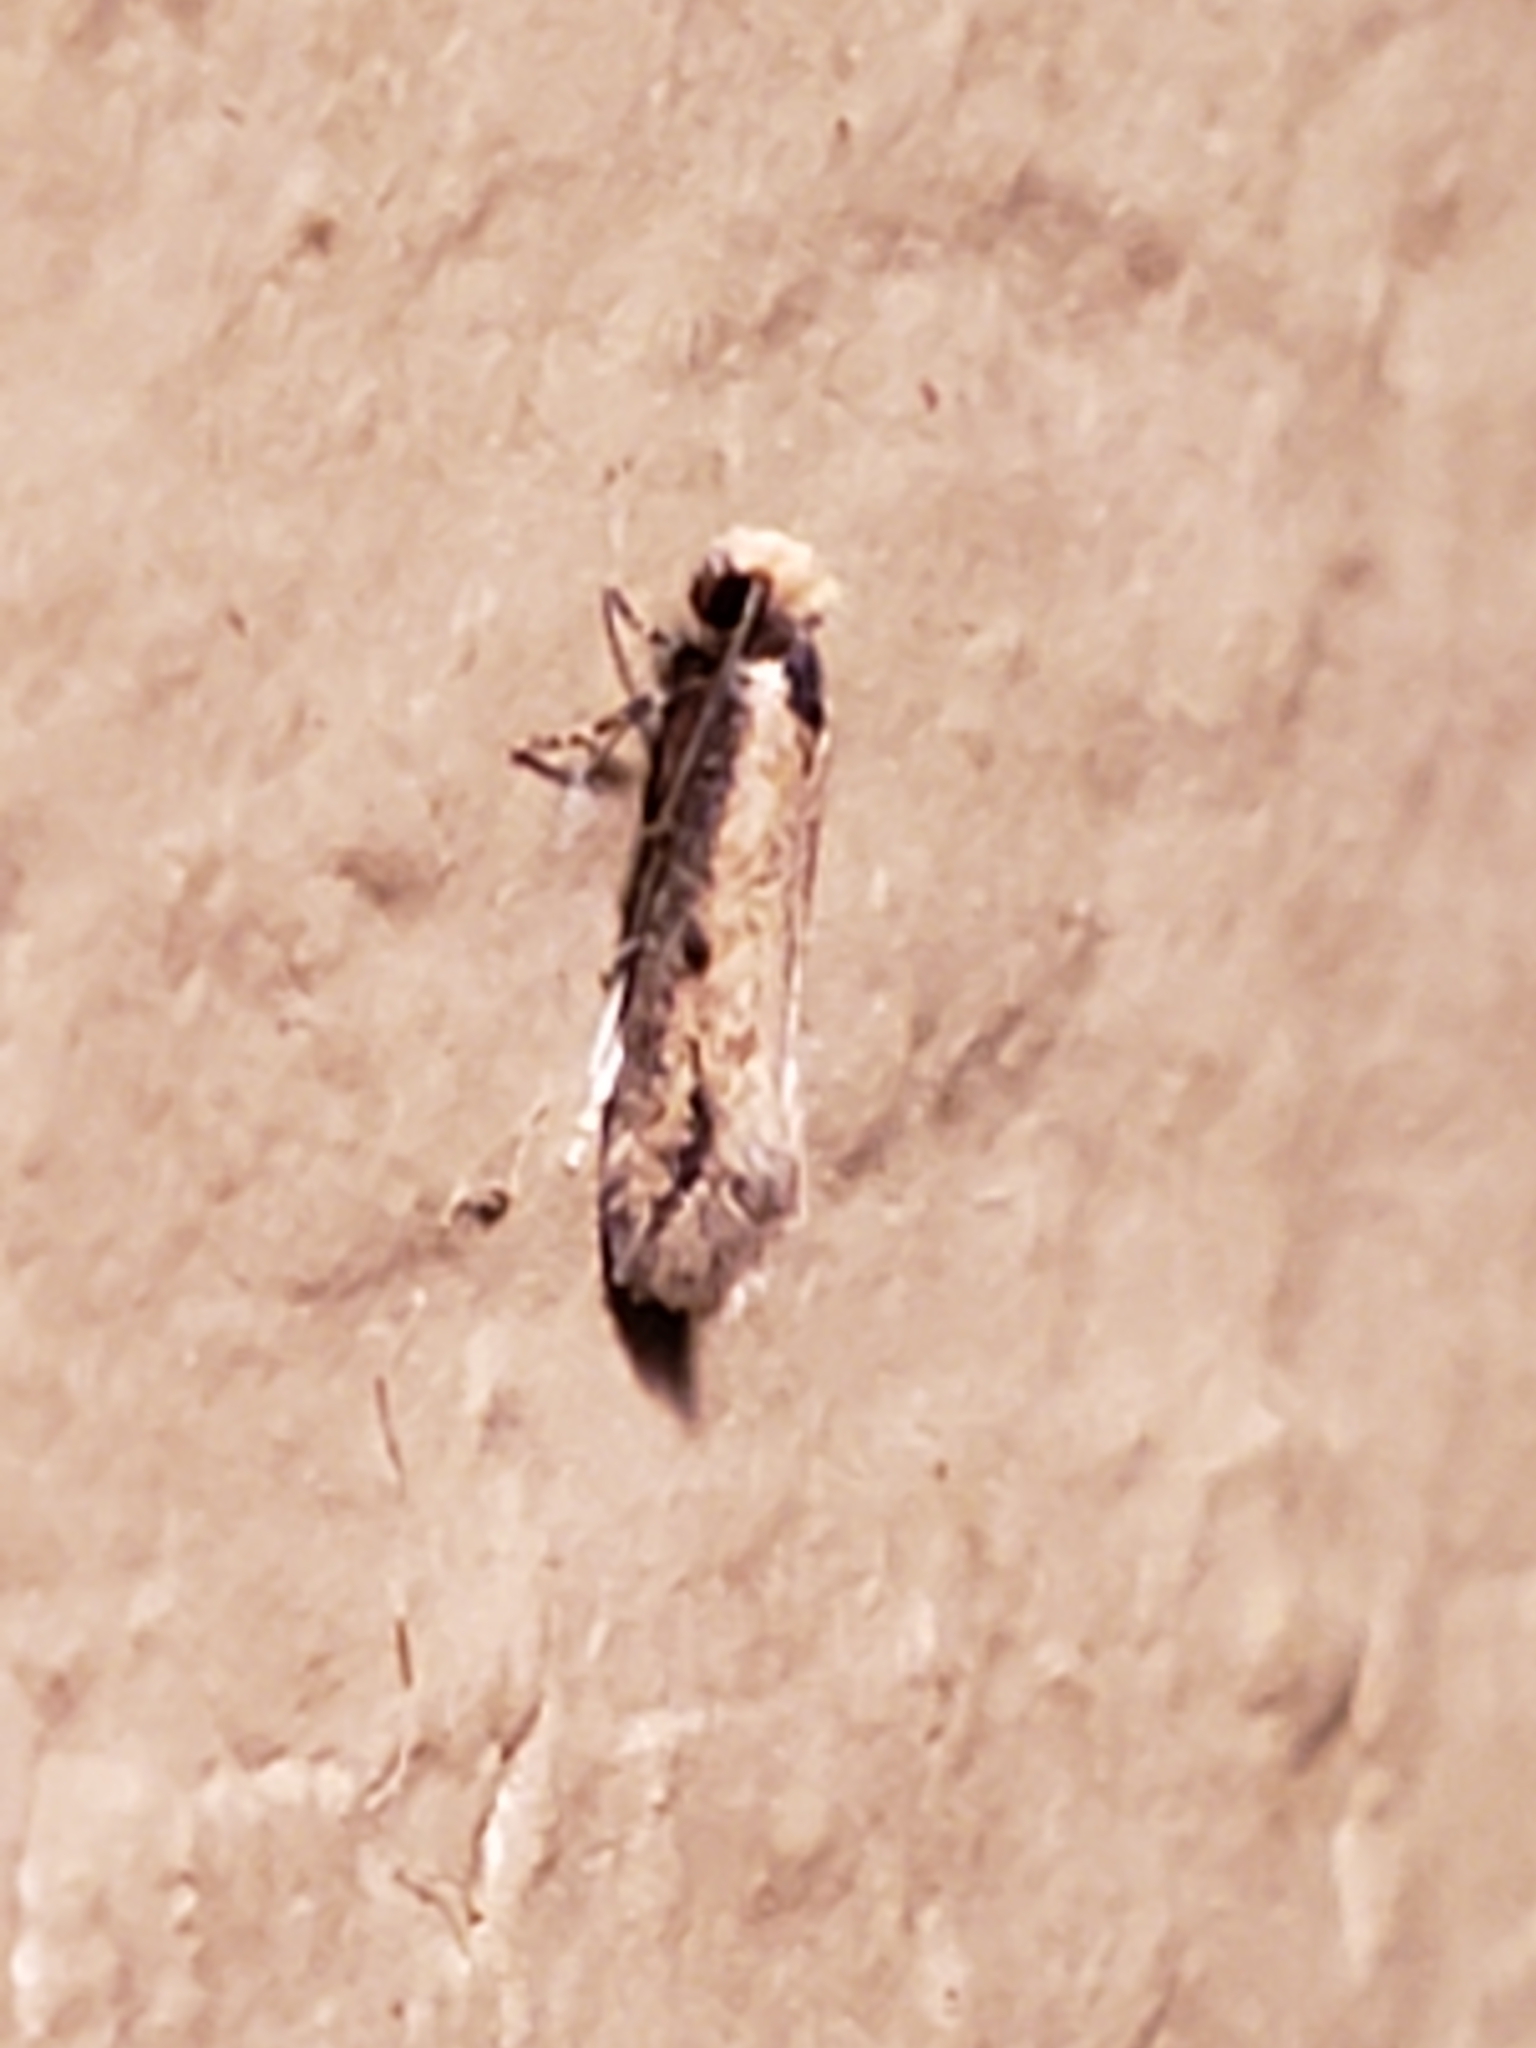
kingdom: Animalia
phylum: Arthropoda
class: Insecta
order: Lepidoptera
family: Meessiidae
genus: Homostinea
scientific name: Homostinea curviliniella
